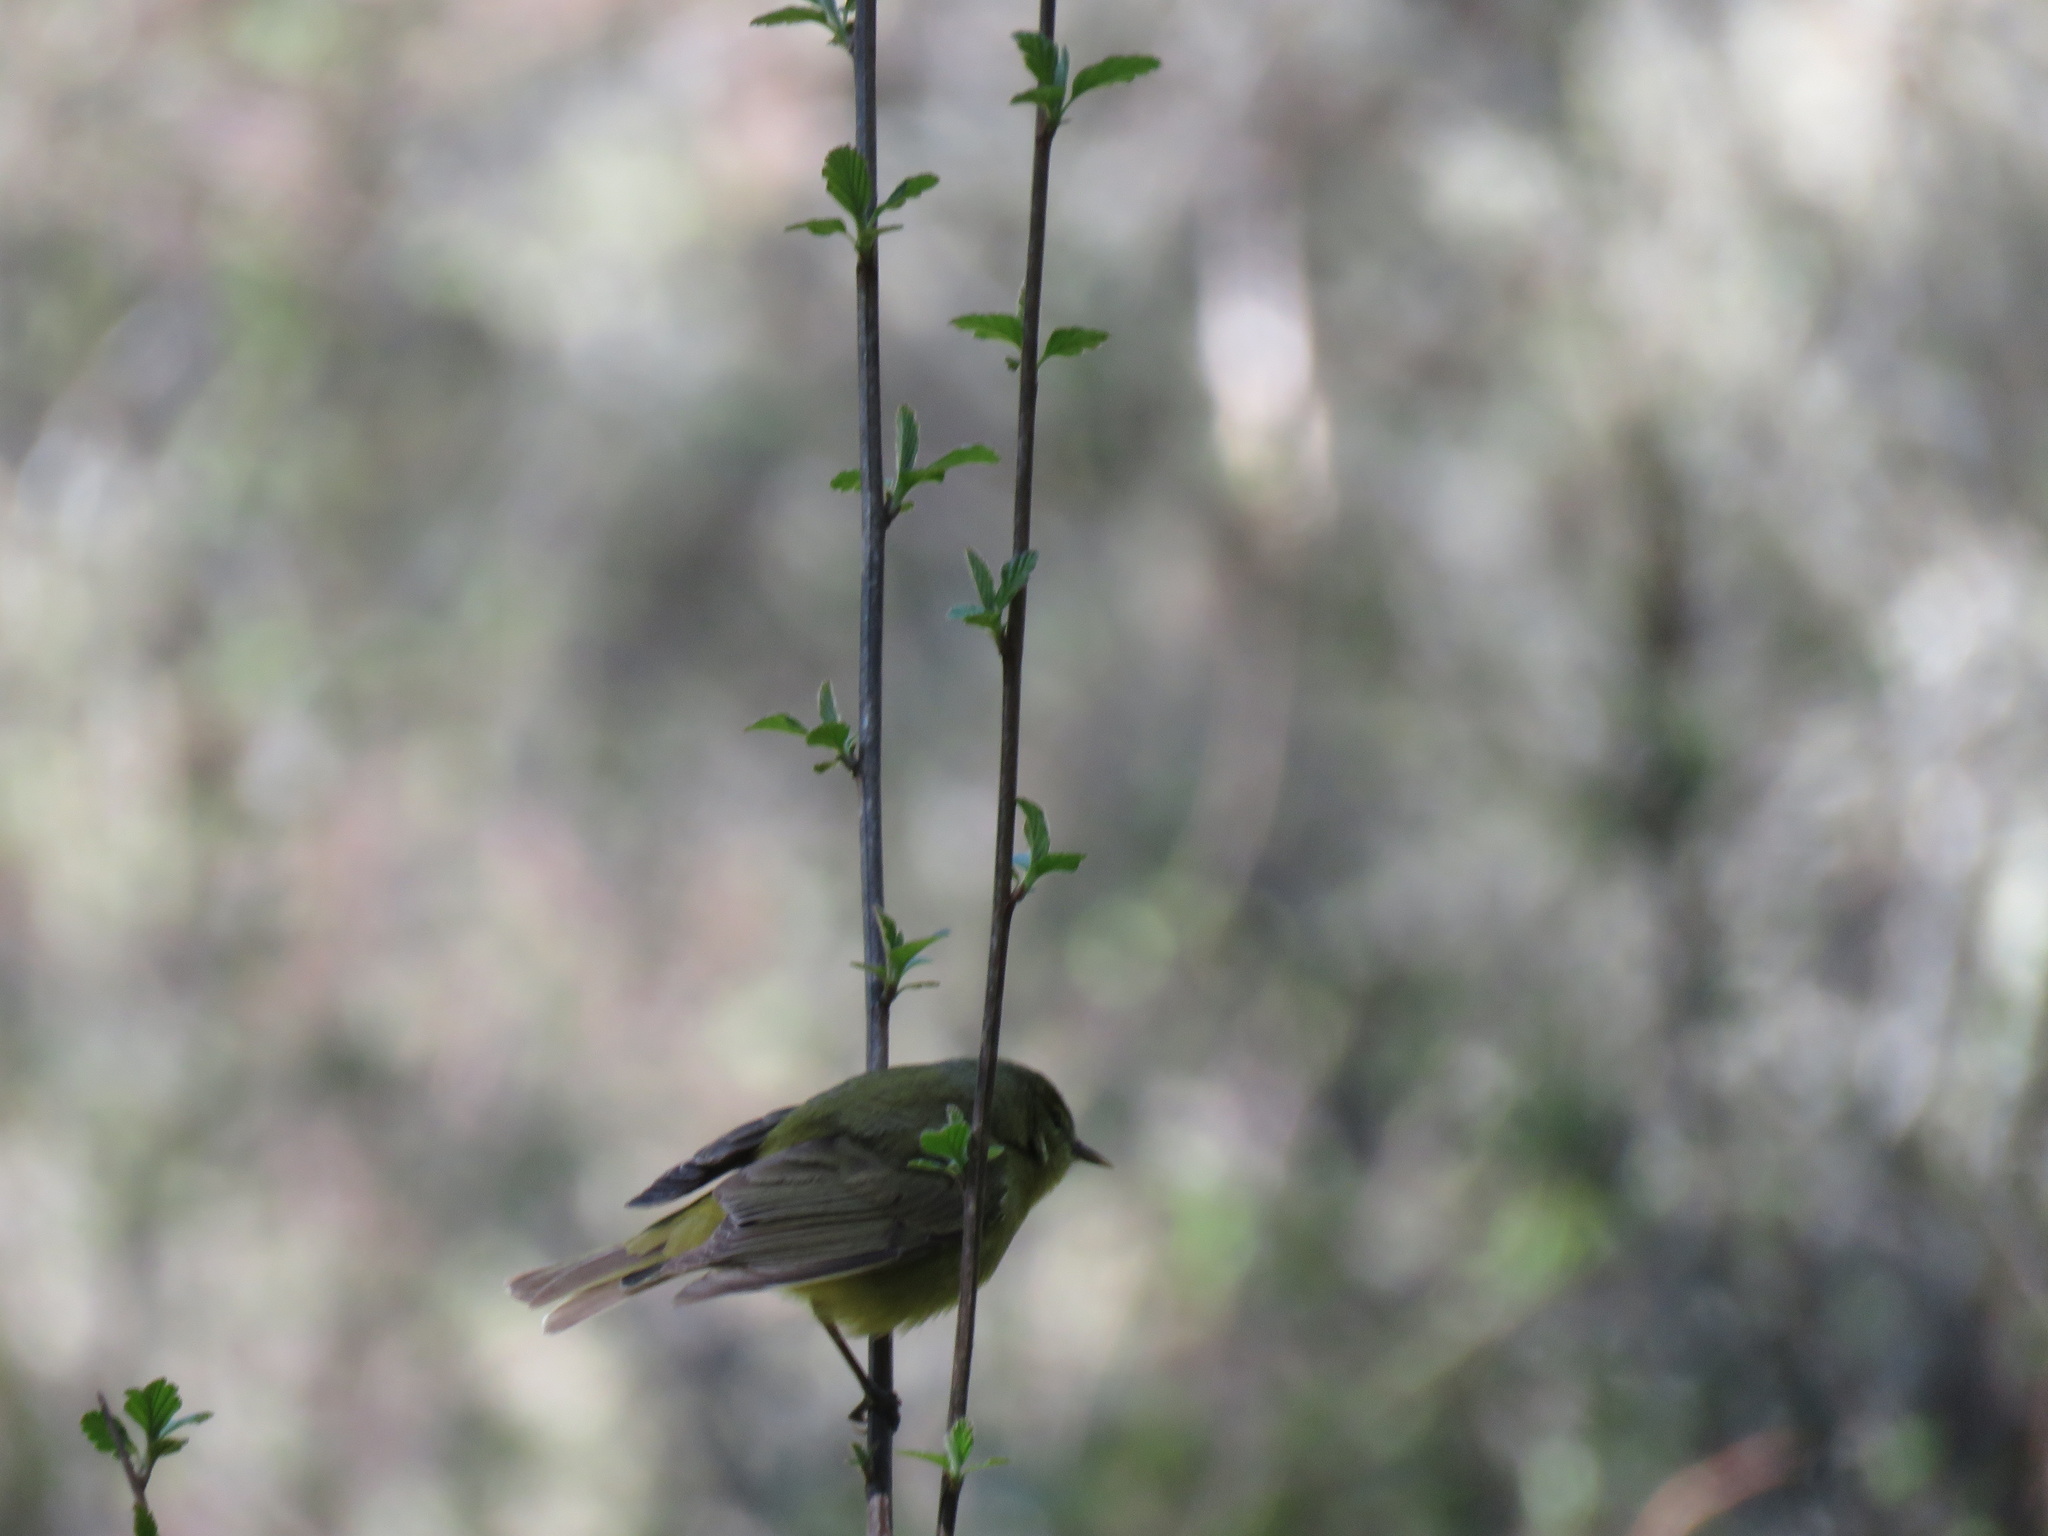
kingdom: Animalia
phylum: Chordata
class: Aves
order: Passeriformes
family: Parulidae
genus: Leiothlypis
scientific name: Leiothlypis celata
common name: Orange-crowned warbler
